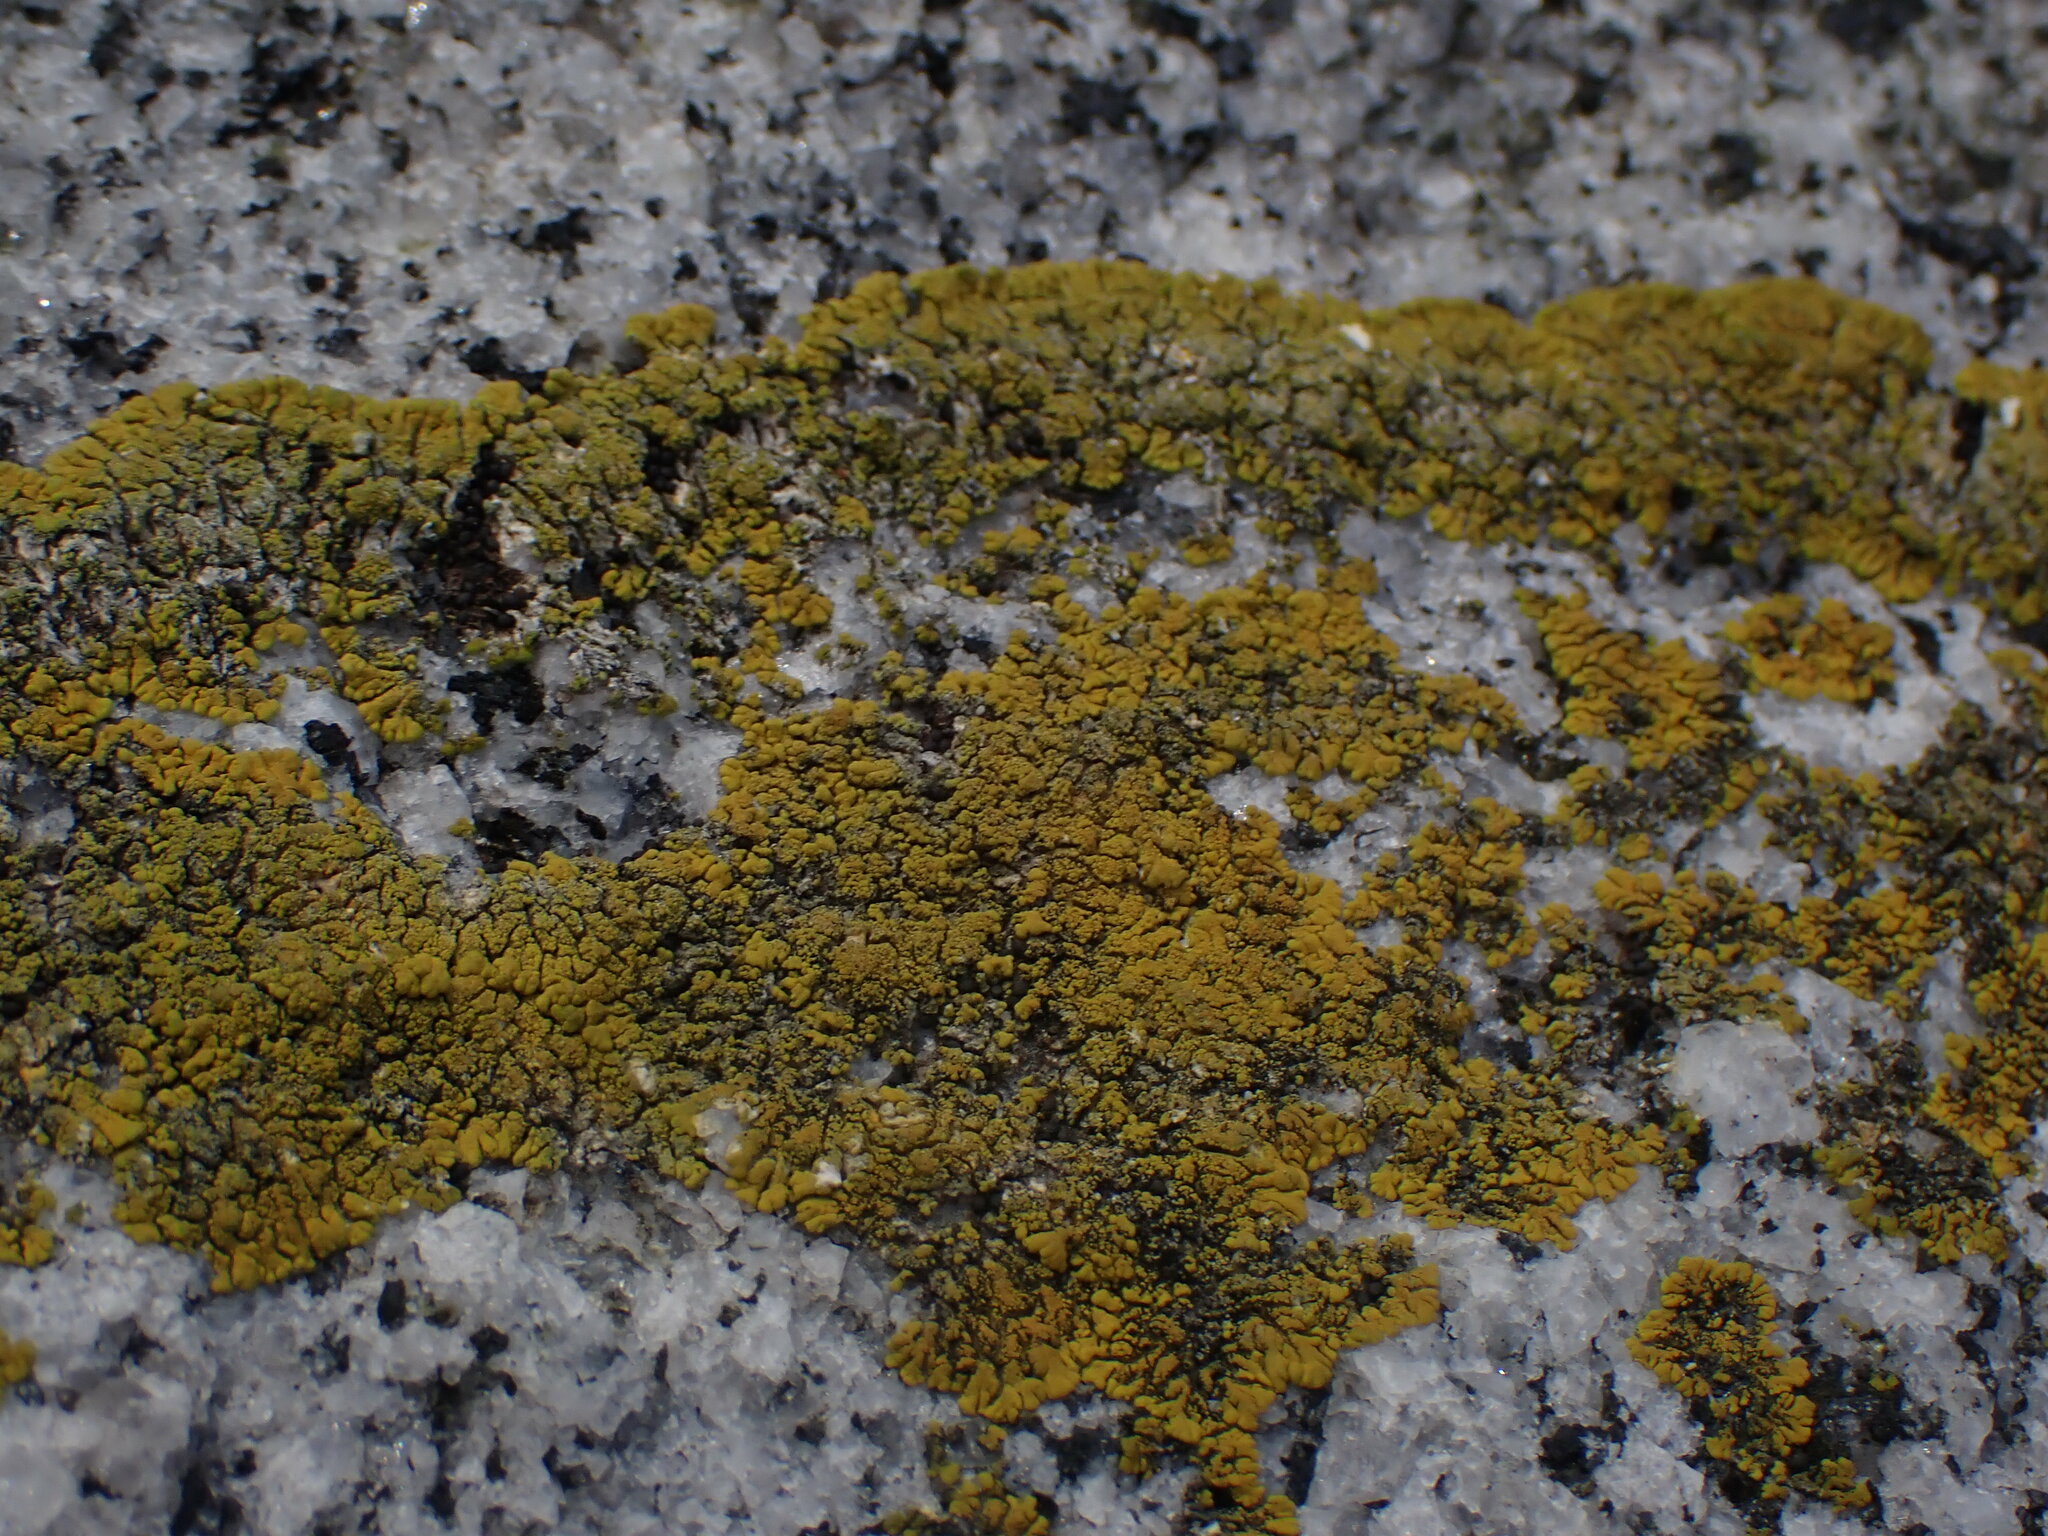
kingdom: Fungi
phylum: Ascomycota
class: Lecanoromycetes
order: Teloschistales
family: Teloschistaceae
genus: Verrucoplaca
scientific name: Verrucoplaca verruculifera
